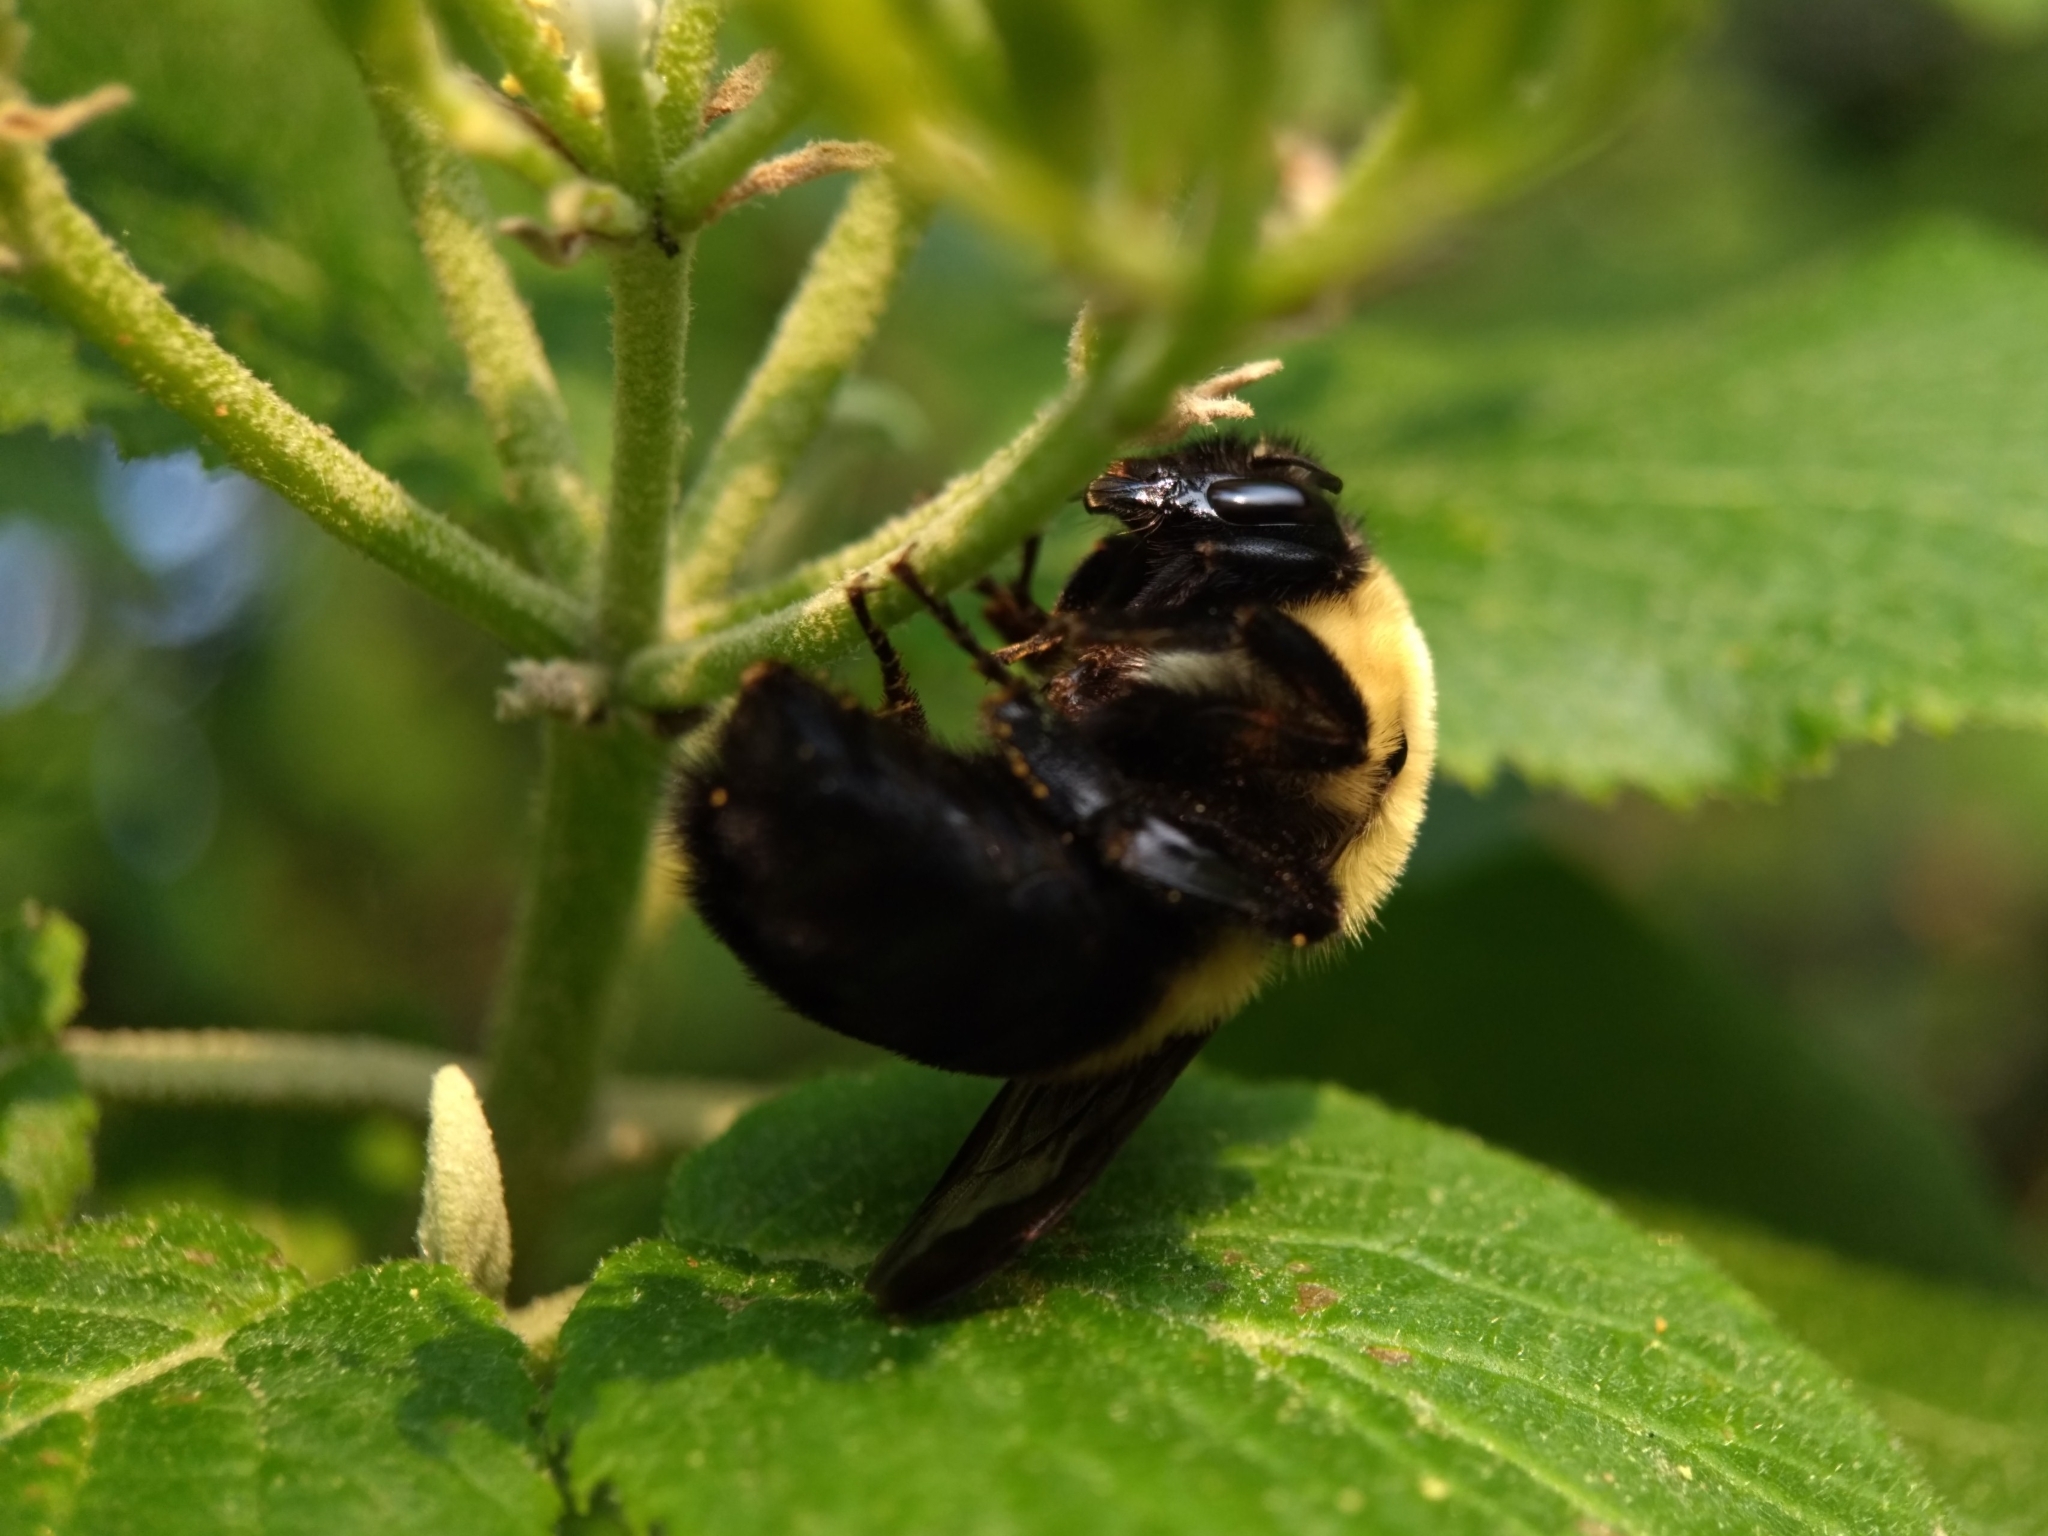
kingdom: Animalia
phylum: Arthropoda
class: Insecta
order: Hymenoptera
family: Apidae
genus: Bombus
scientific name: Bombus griseocollis
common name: Brown-belted bumble bee
